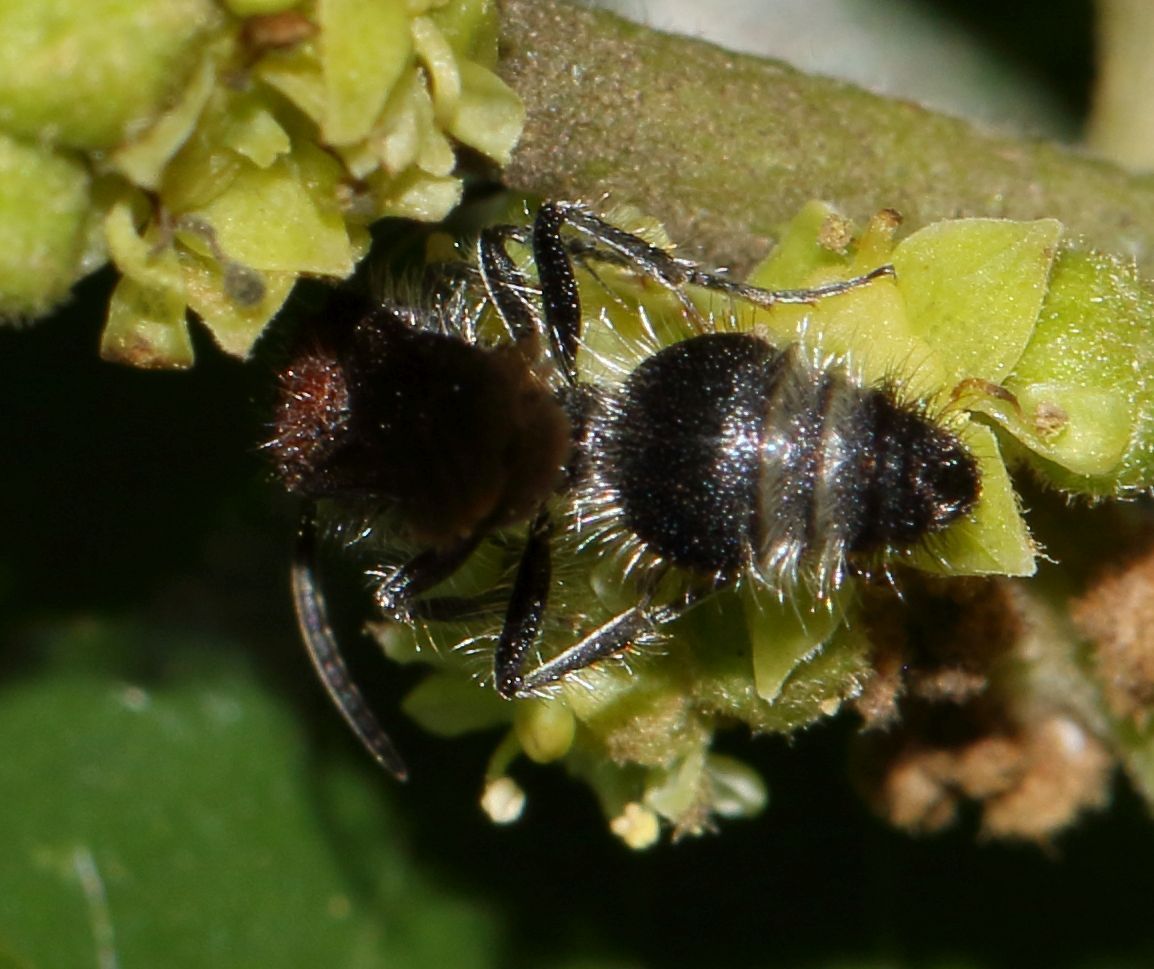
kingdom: Plantae
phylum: Tracheophyta
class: Magnoliopsida
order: Rosales
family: Rhamnaceae
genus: Ziziphus
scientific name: Ziziphus mucronata
